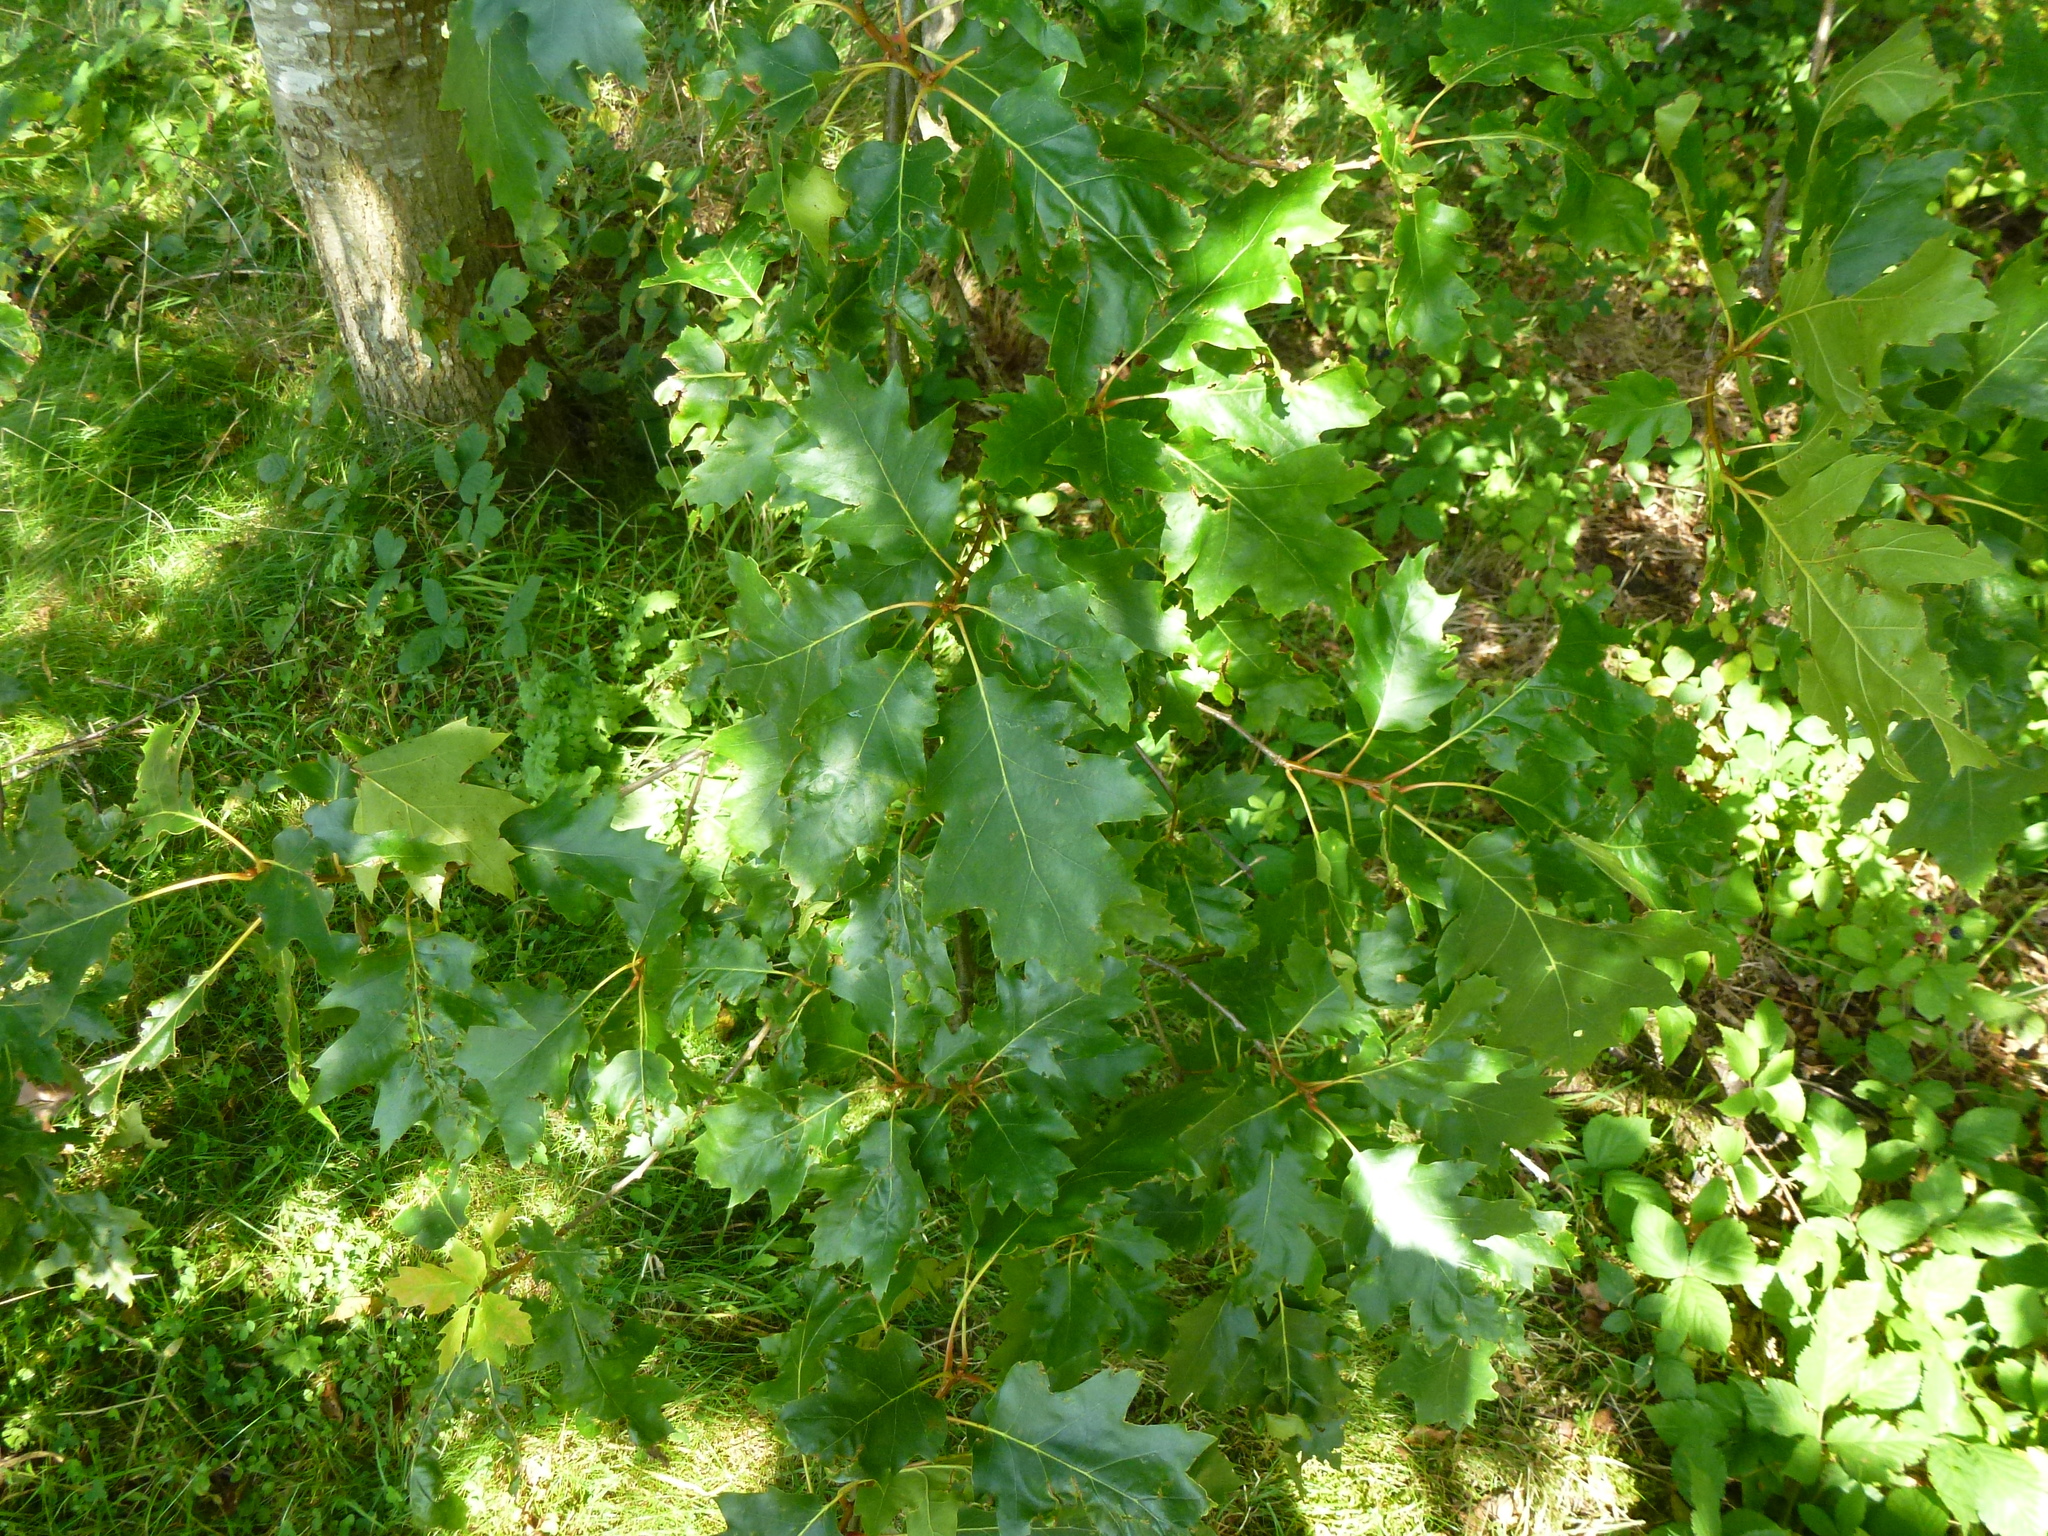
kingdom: Plantae
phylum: Tracheophyta
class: Magnoliopsida
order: Fagales
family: Fagaceae
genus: Quercus
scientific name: Quercus rubra
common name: Red oak
